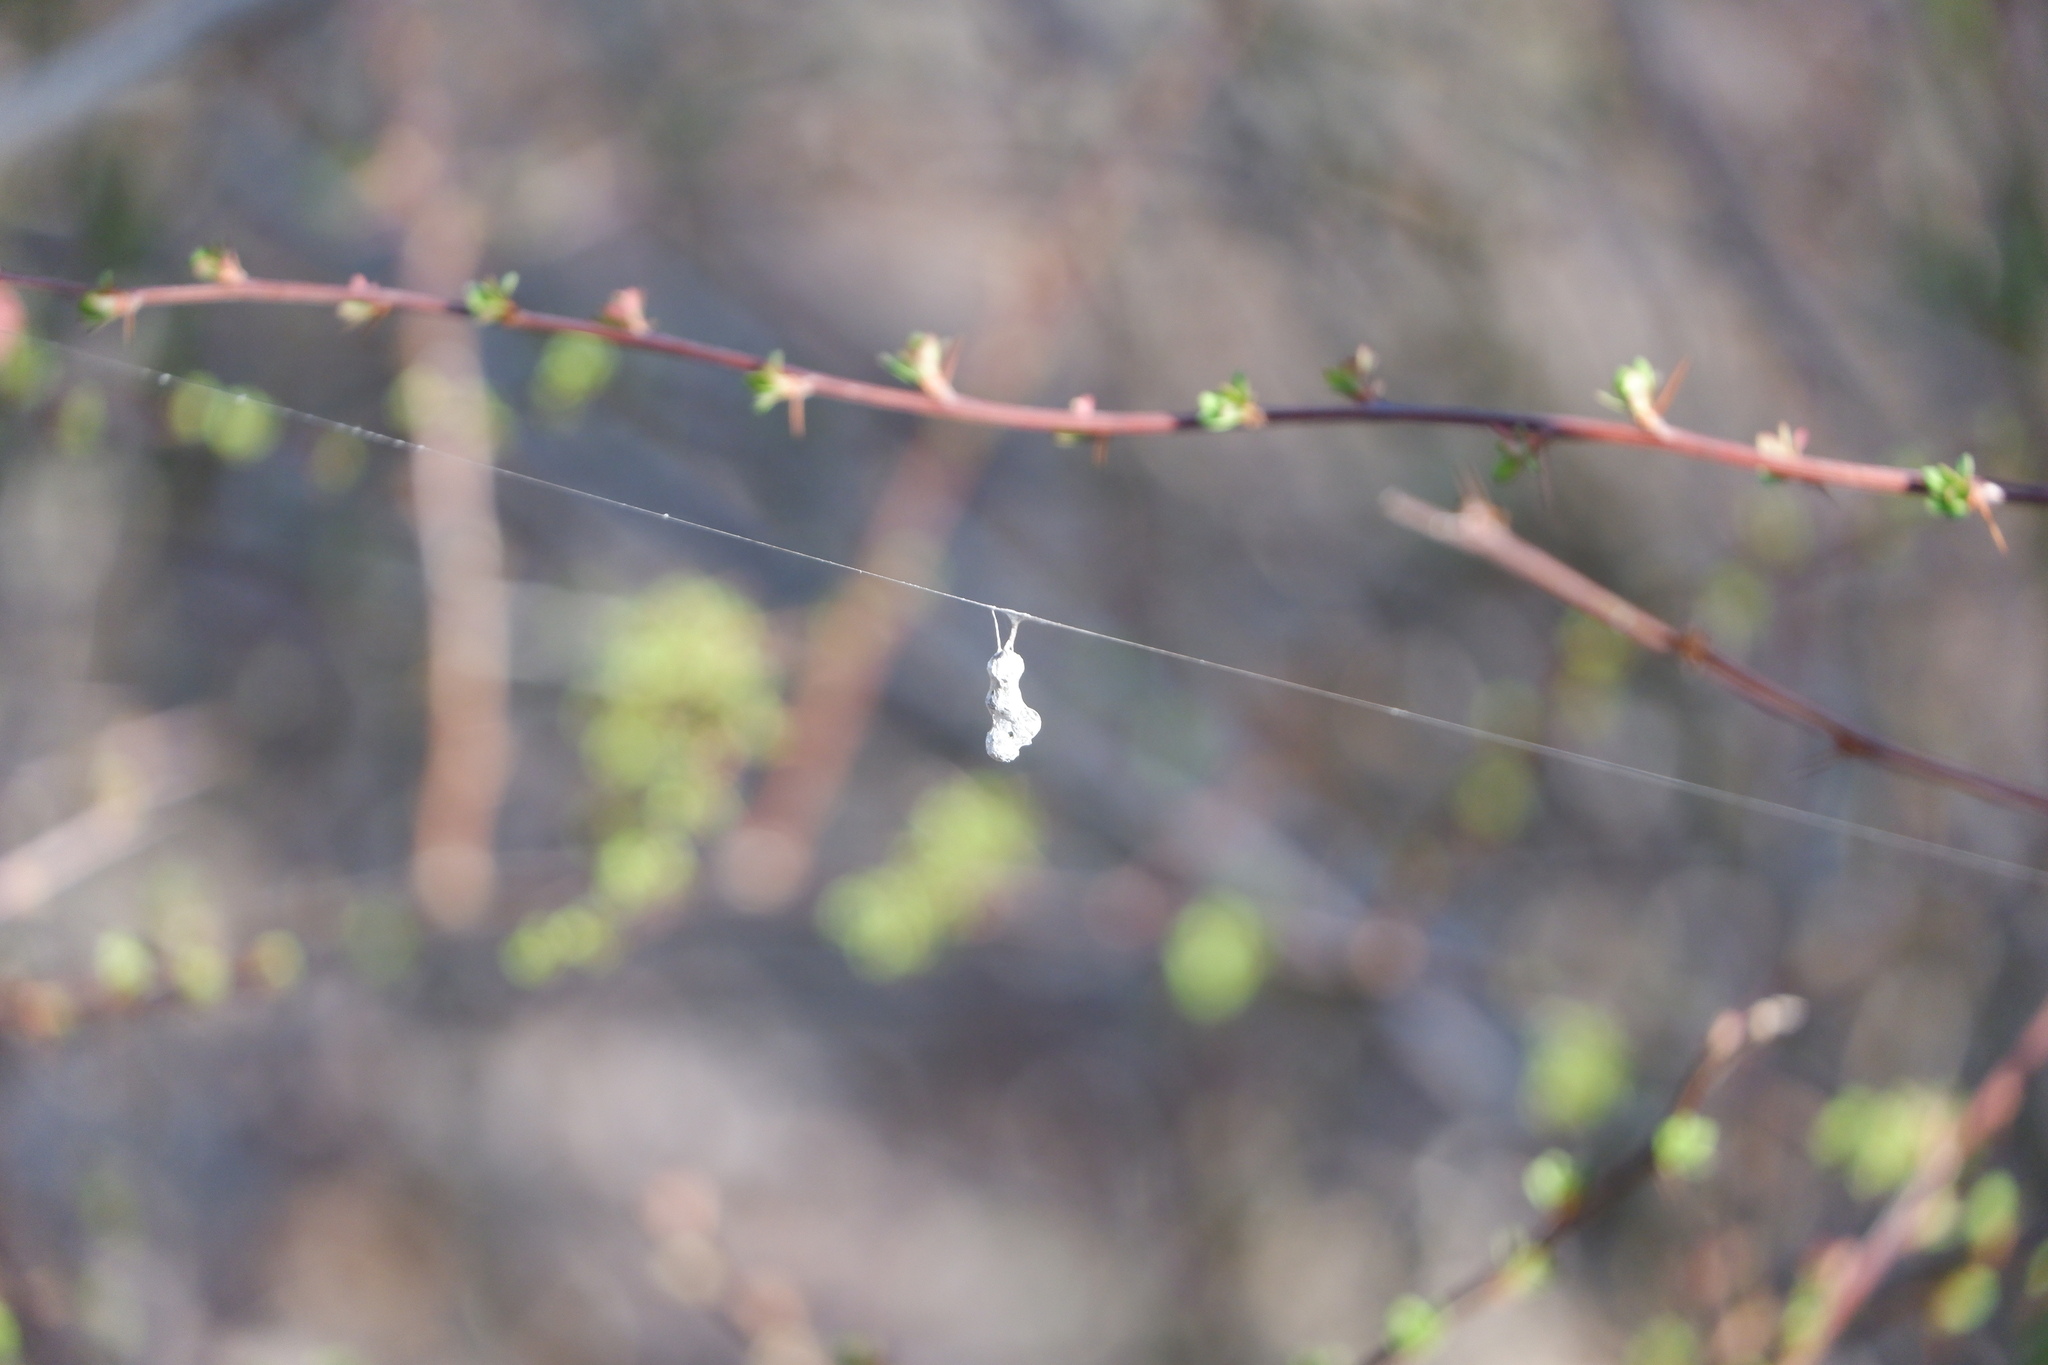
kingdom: Animalia
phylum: Arthropoda
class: Arachnida
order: Araneae
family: Araneidae
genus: Mecynogea
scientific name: Mecynogea lemniscata
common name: Orb weavers
